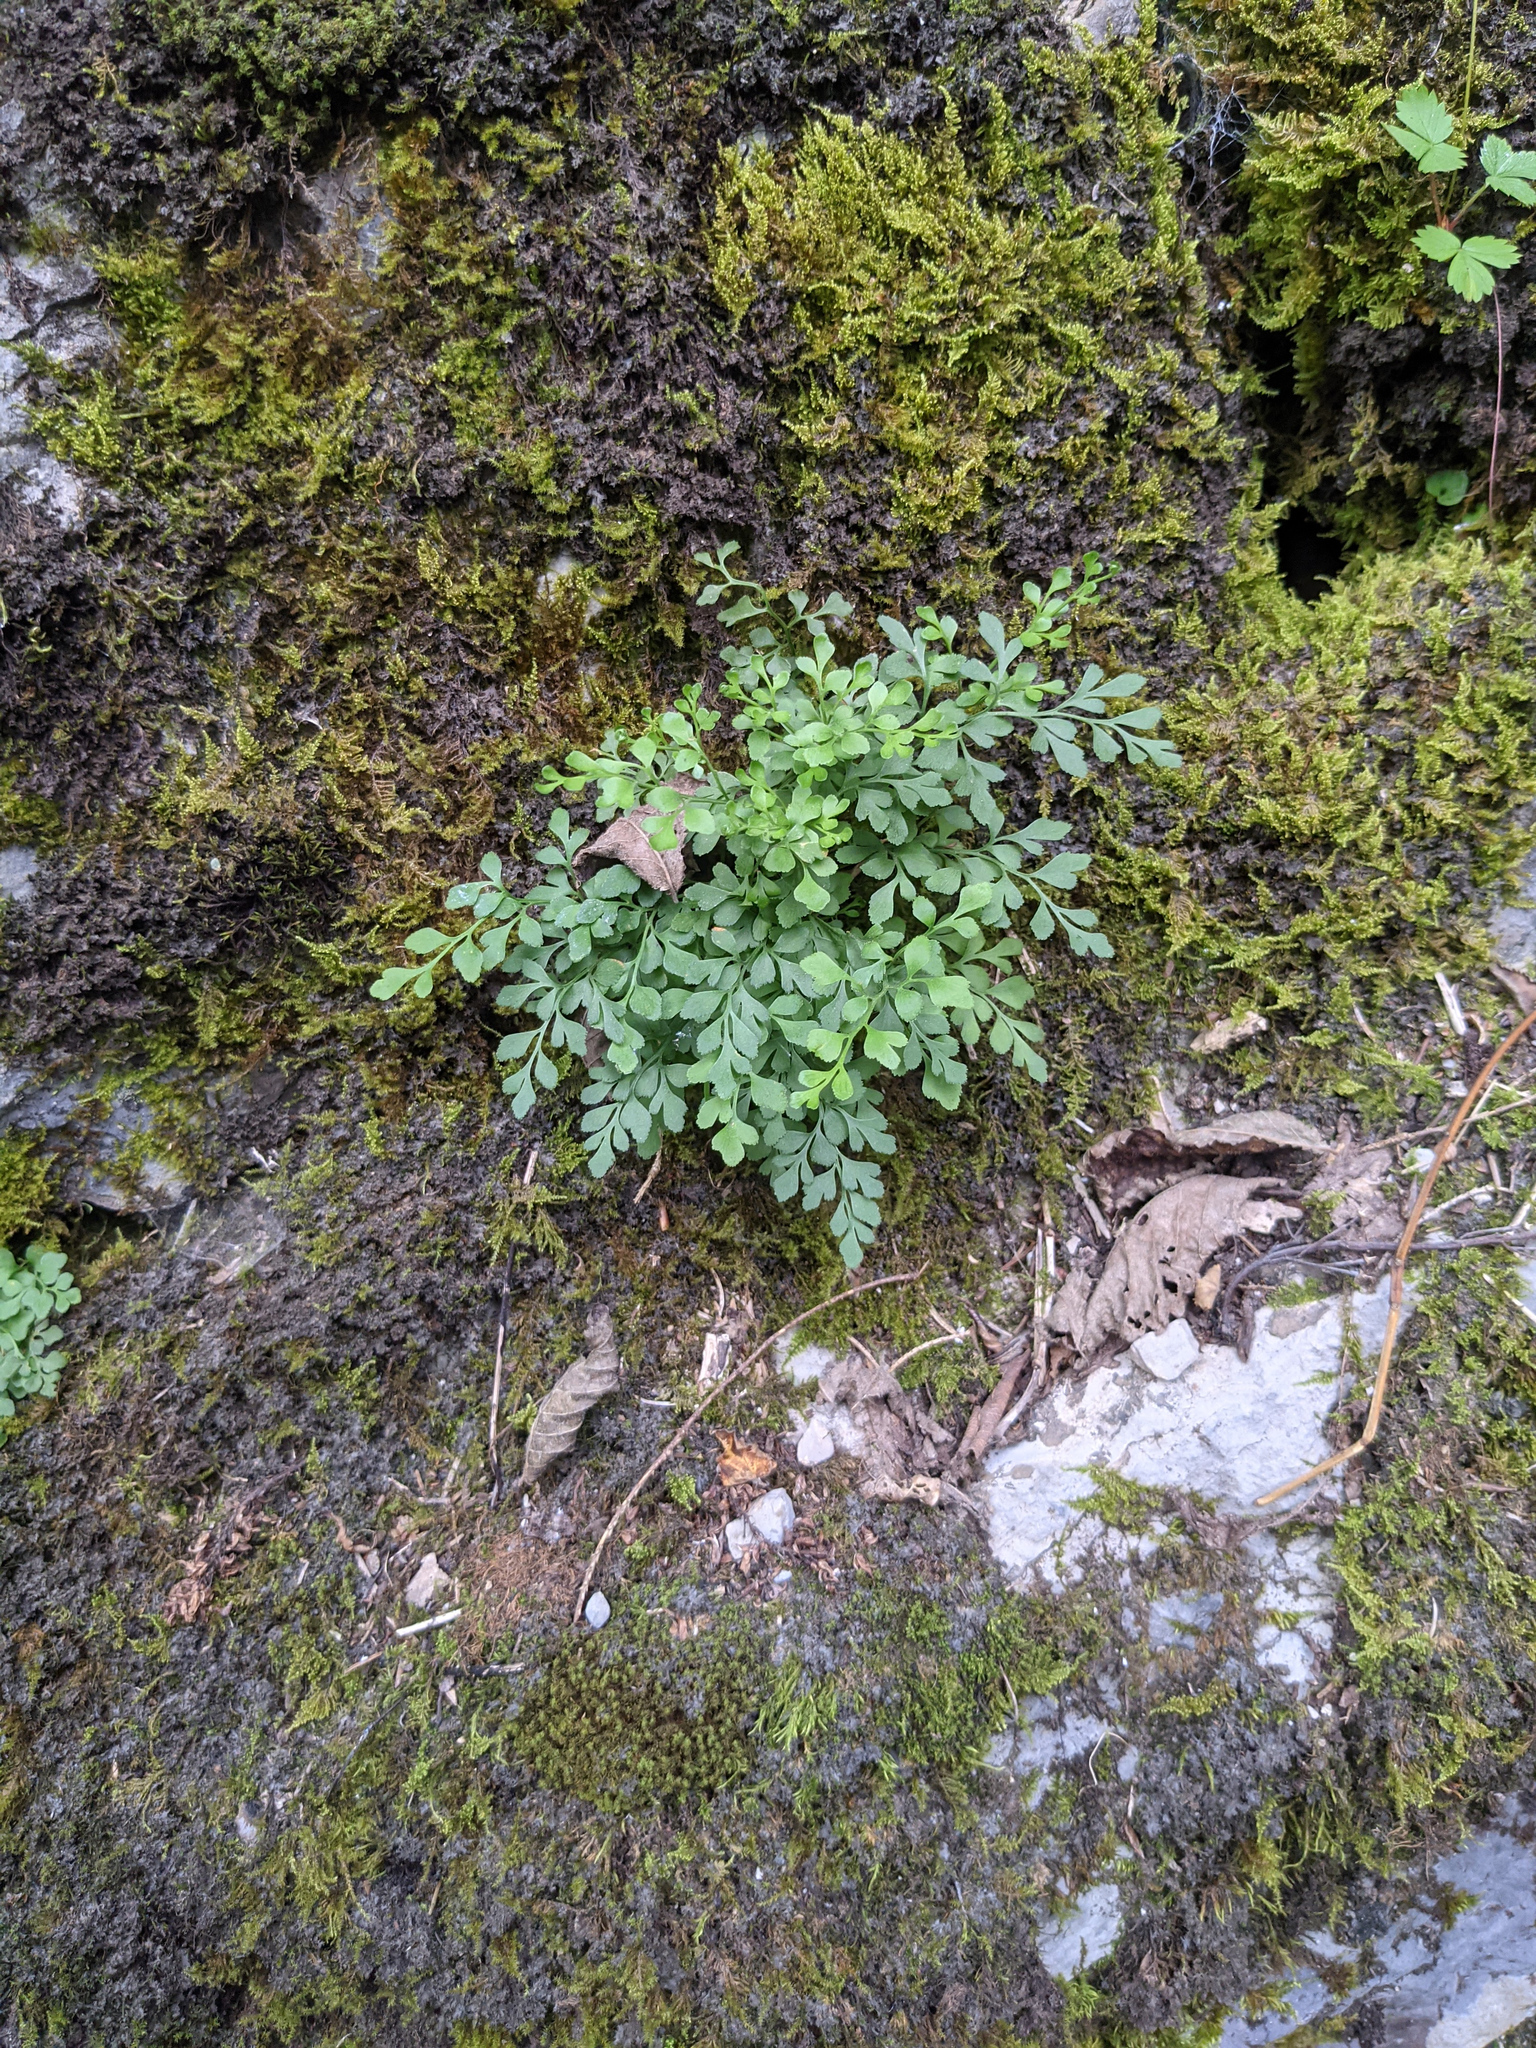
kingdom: Plantae
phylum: Tracheophyta
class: Polypodiopsida
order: Polypodiales
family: Aspleniaceae
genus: Asplenium
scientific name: Asplenium ruta-muraria
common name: Wall-rue
